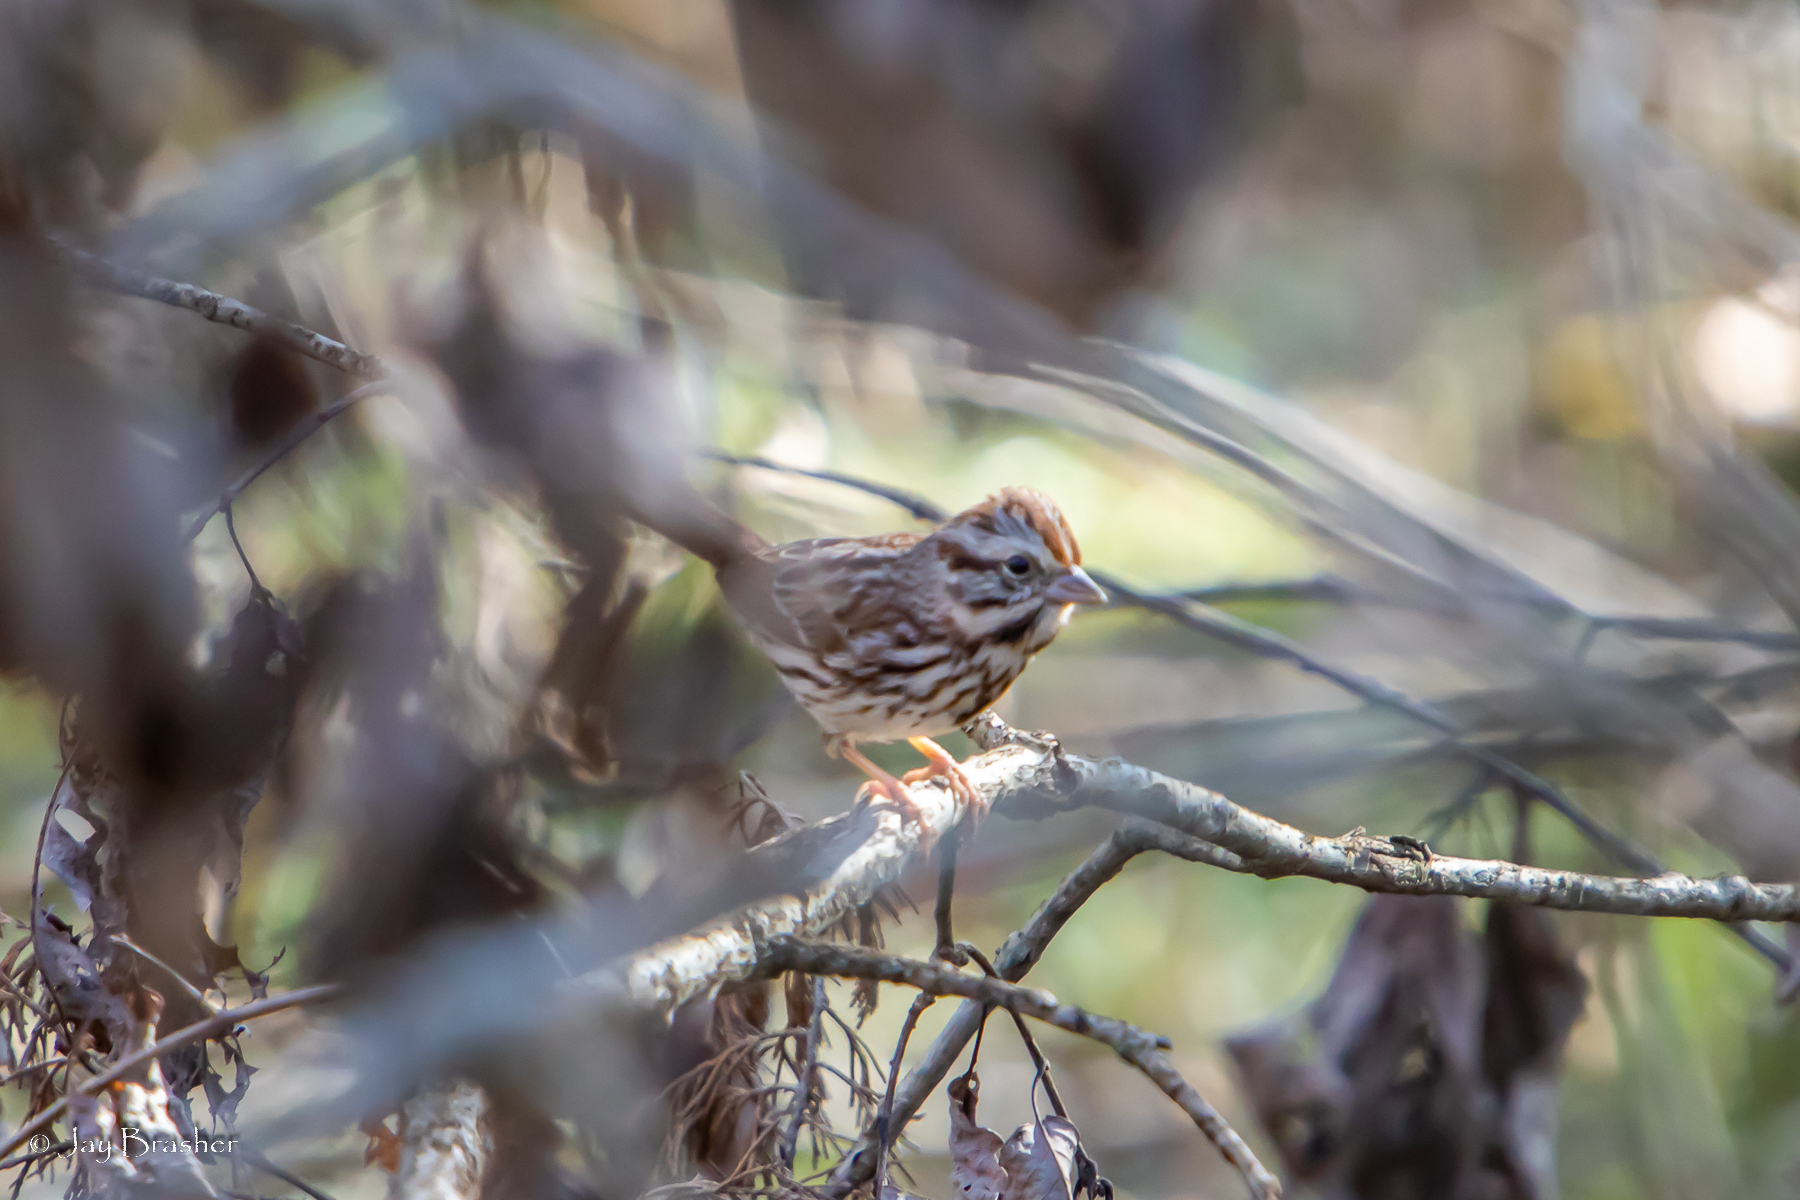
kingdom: Animalia
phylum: Chordata
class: Aves
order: Passeriformes
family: Passerellidae
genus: Melospiza
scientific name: Melospiza melodia
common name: Song sparrow
